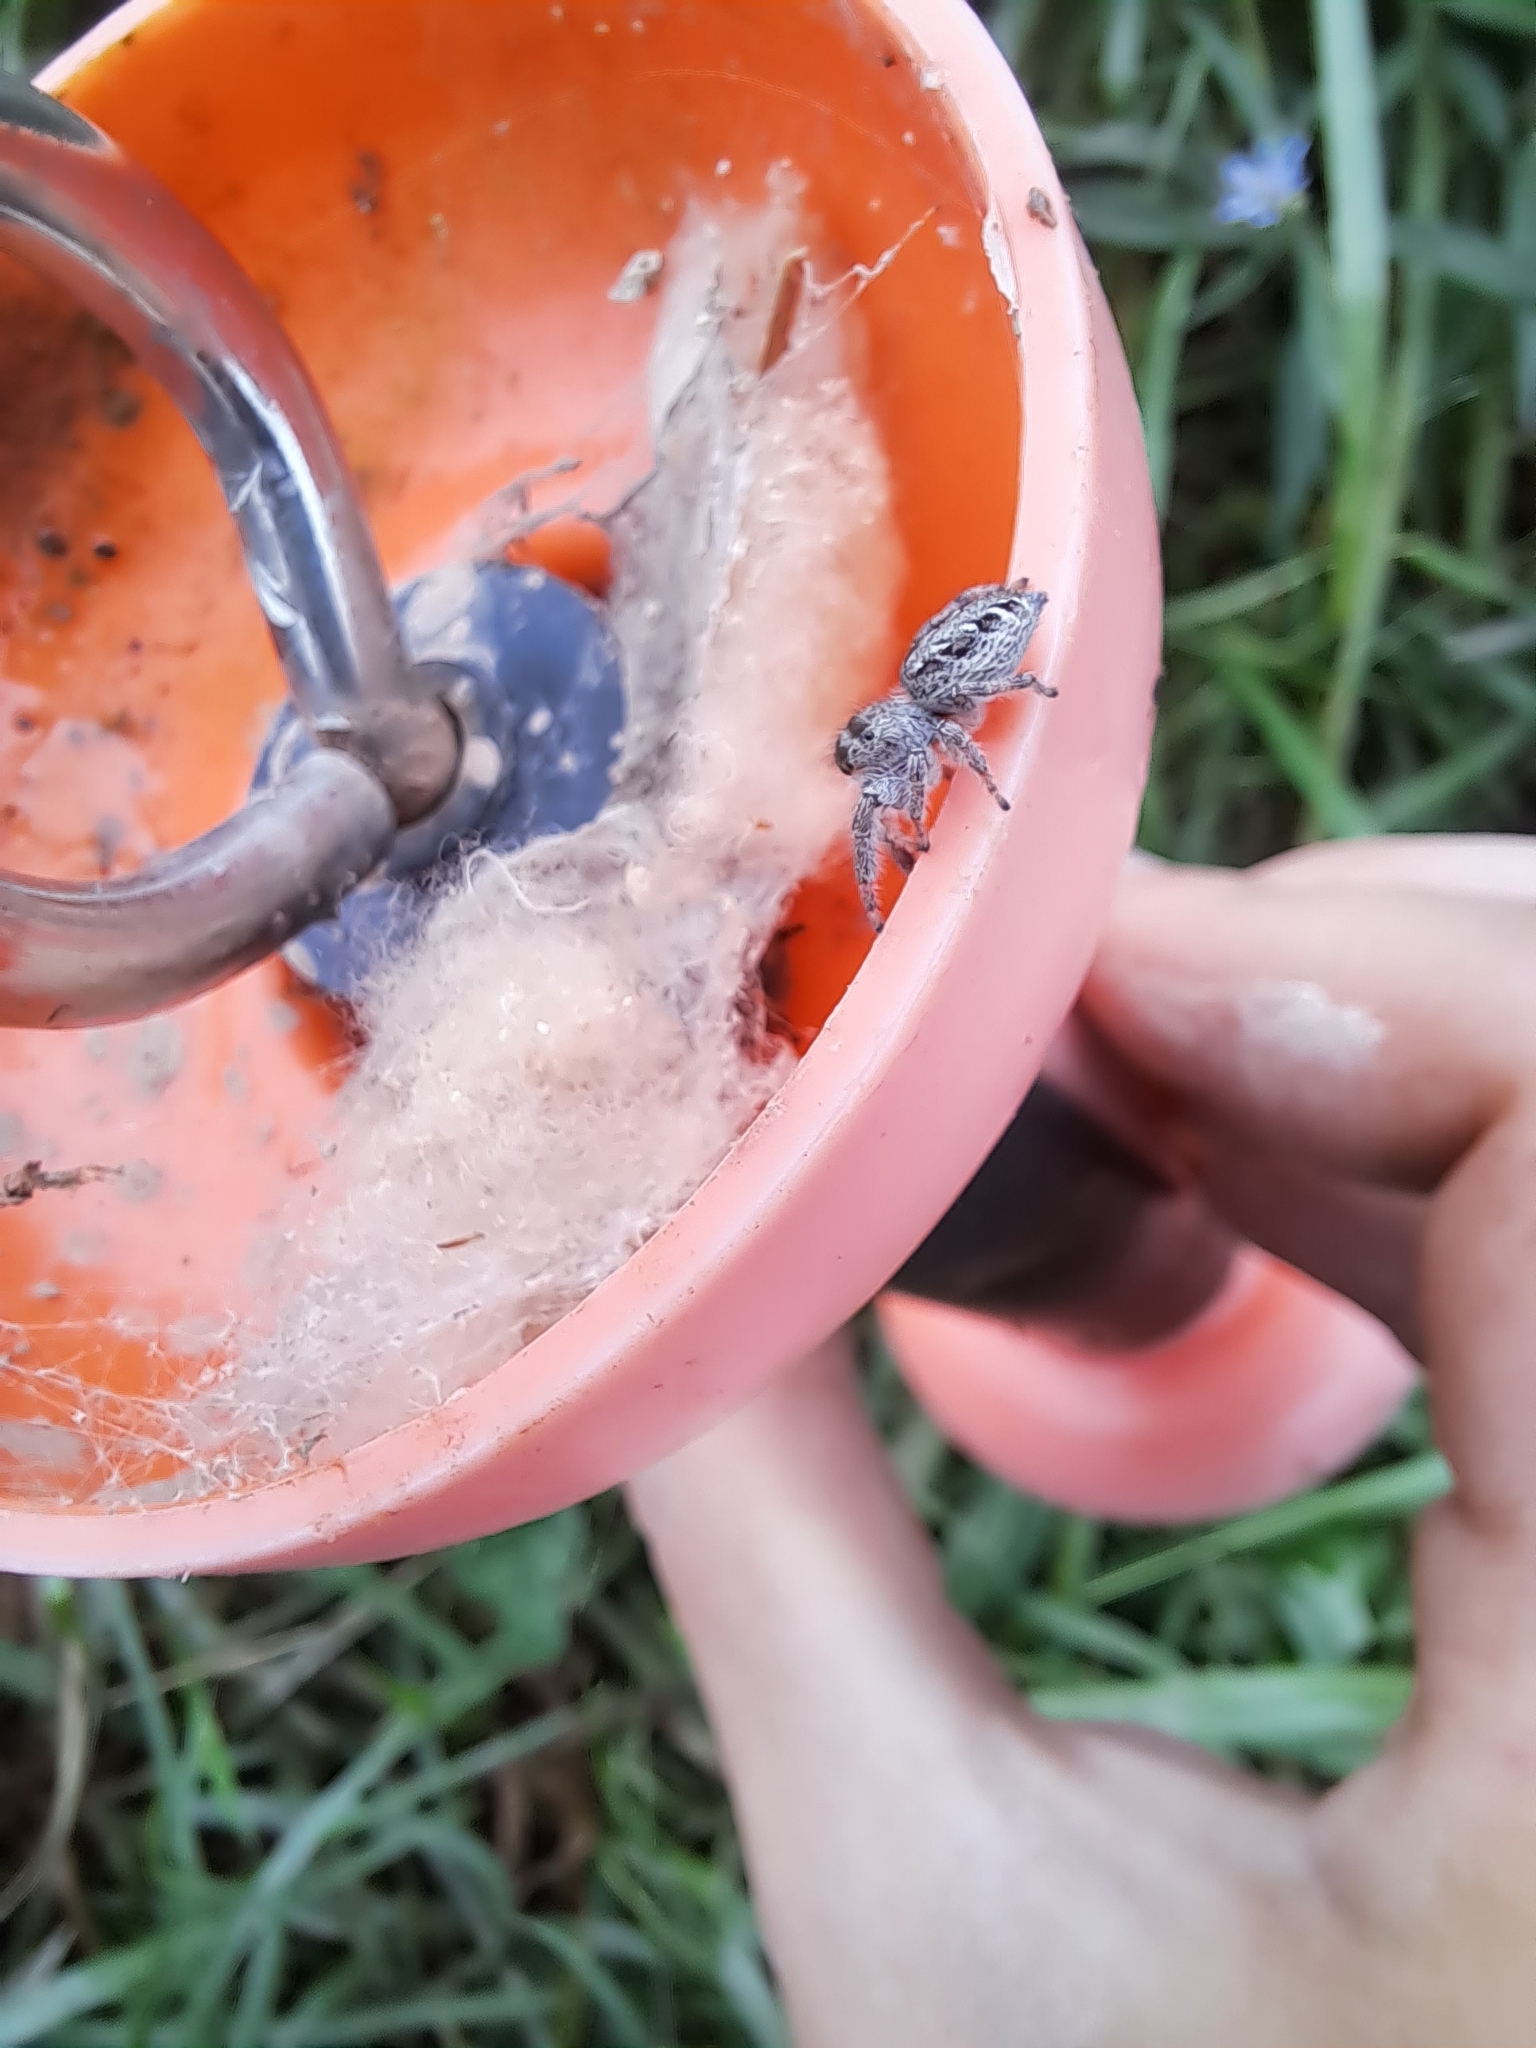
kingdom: Animalia
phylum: Arthropoda
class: Arachnida
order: Araneae
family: Salticidae
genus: Eris
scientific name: Eris militaris
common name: Bronze jumper
